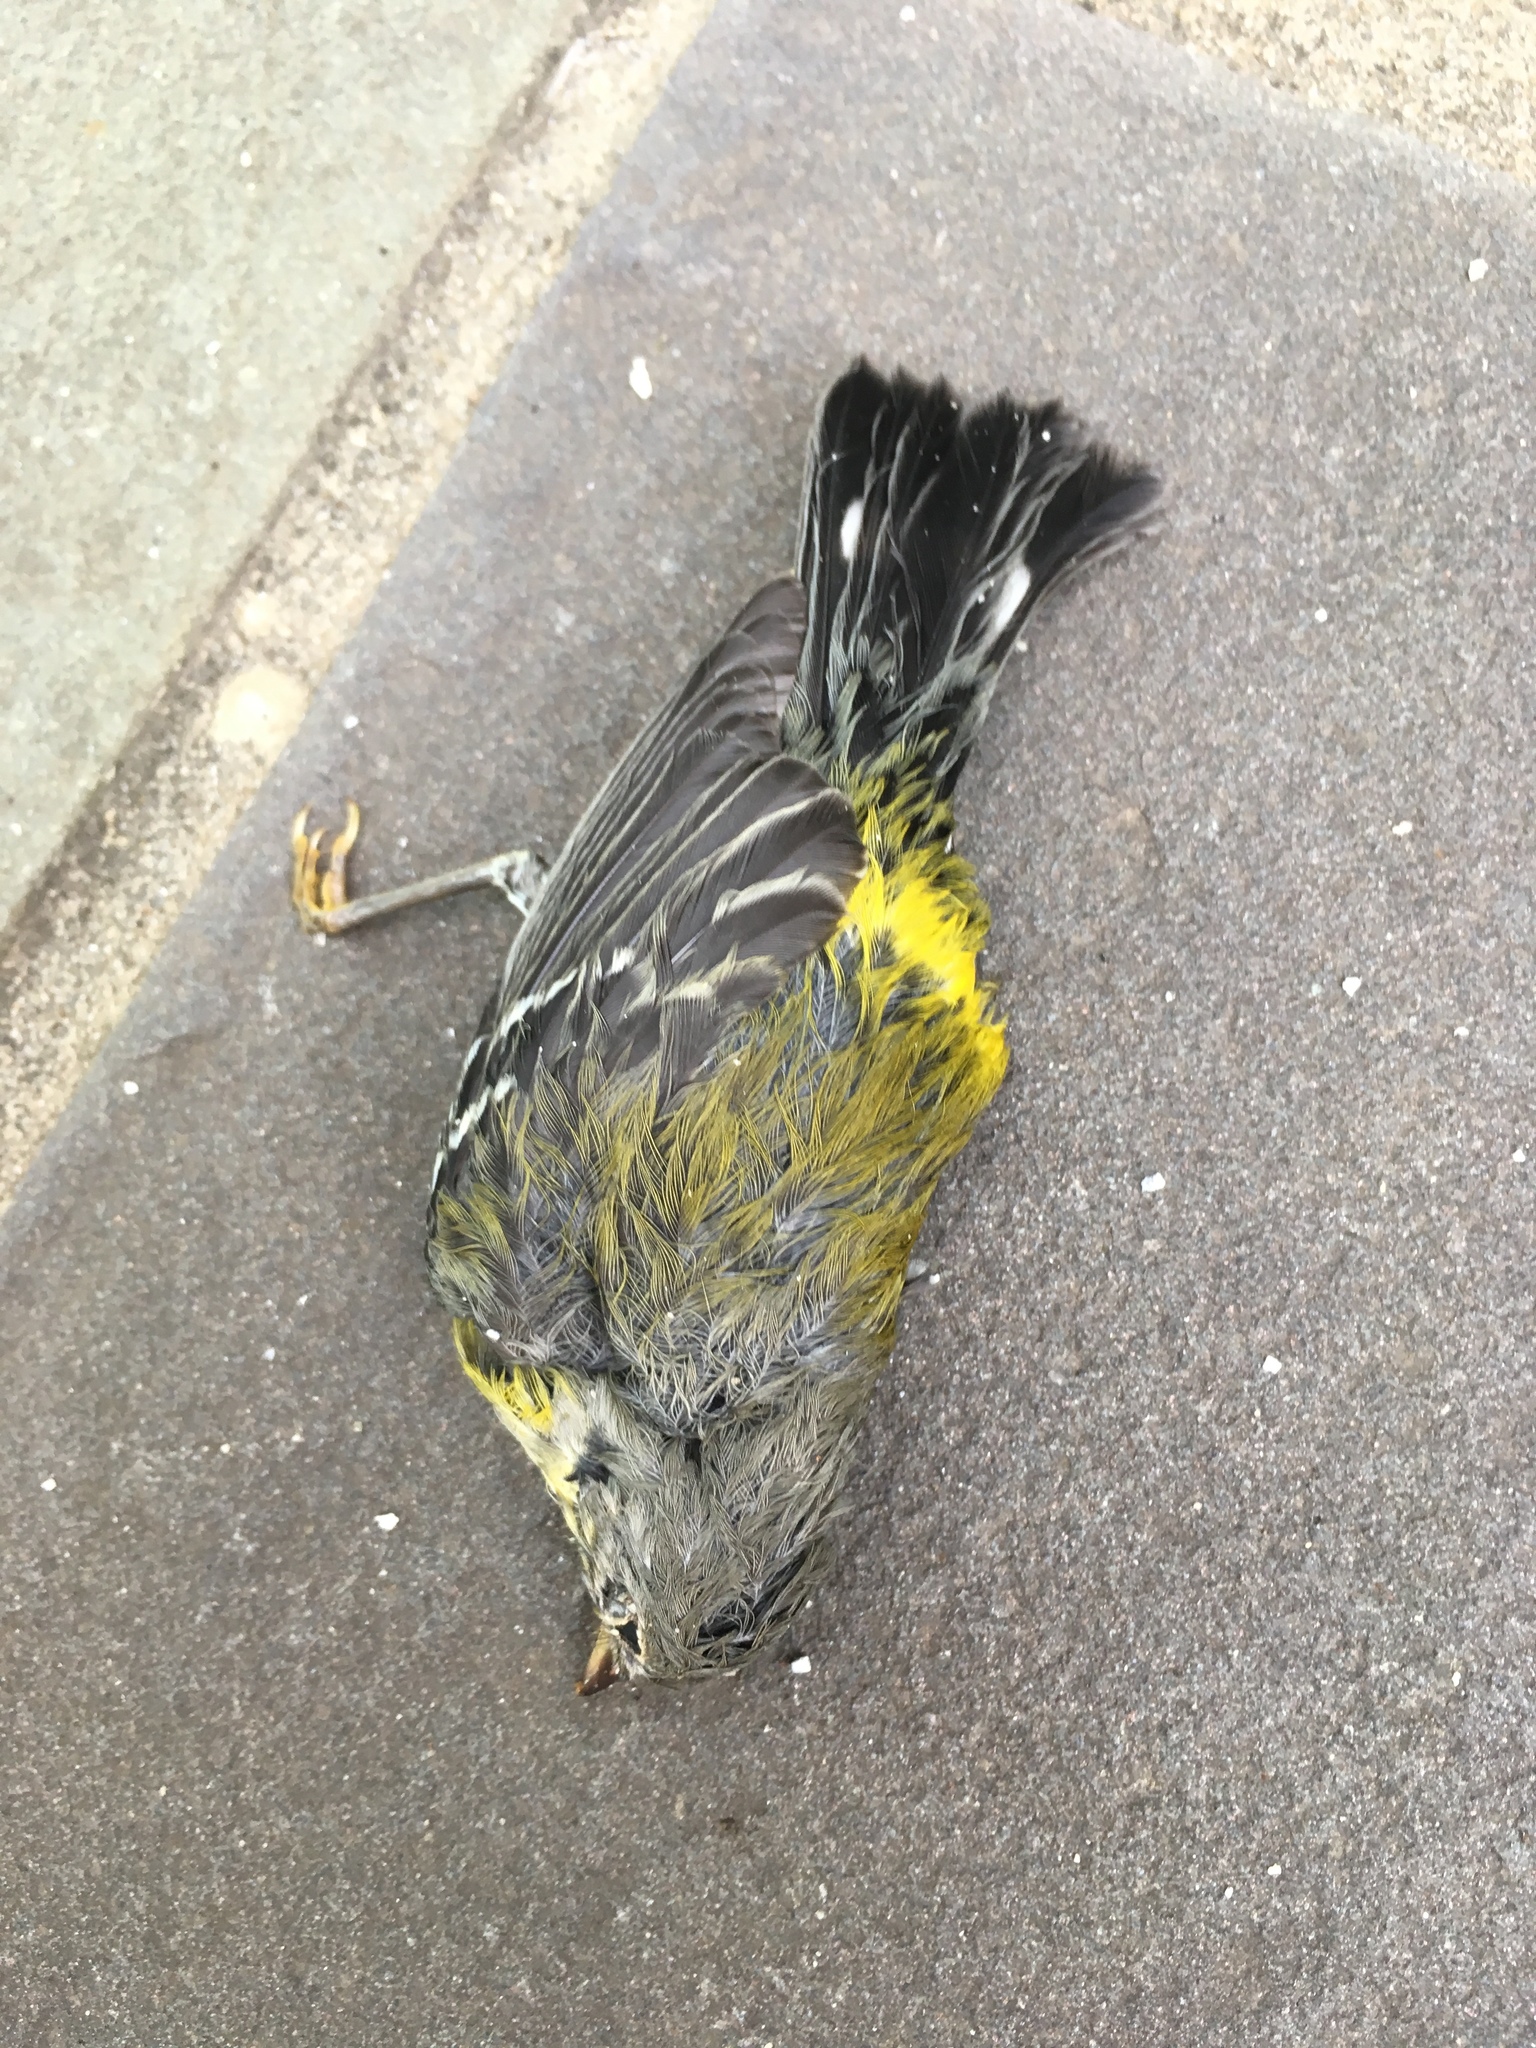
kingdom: Animalia
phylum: Chordata
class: Aves
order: Passeriformes
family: Parulidae
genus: Setophaga
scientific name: Setophaga magnolia
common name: Magnolia warbler
